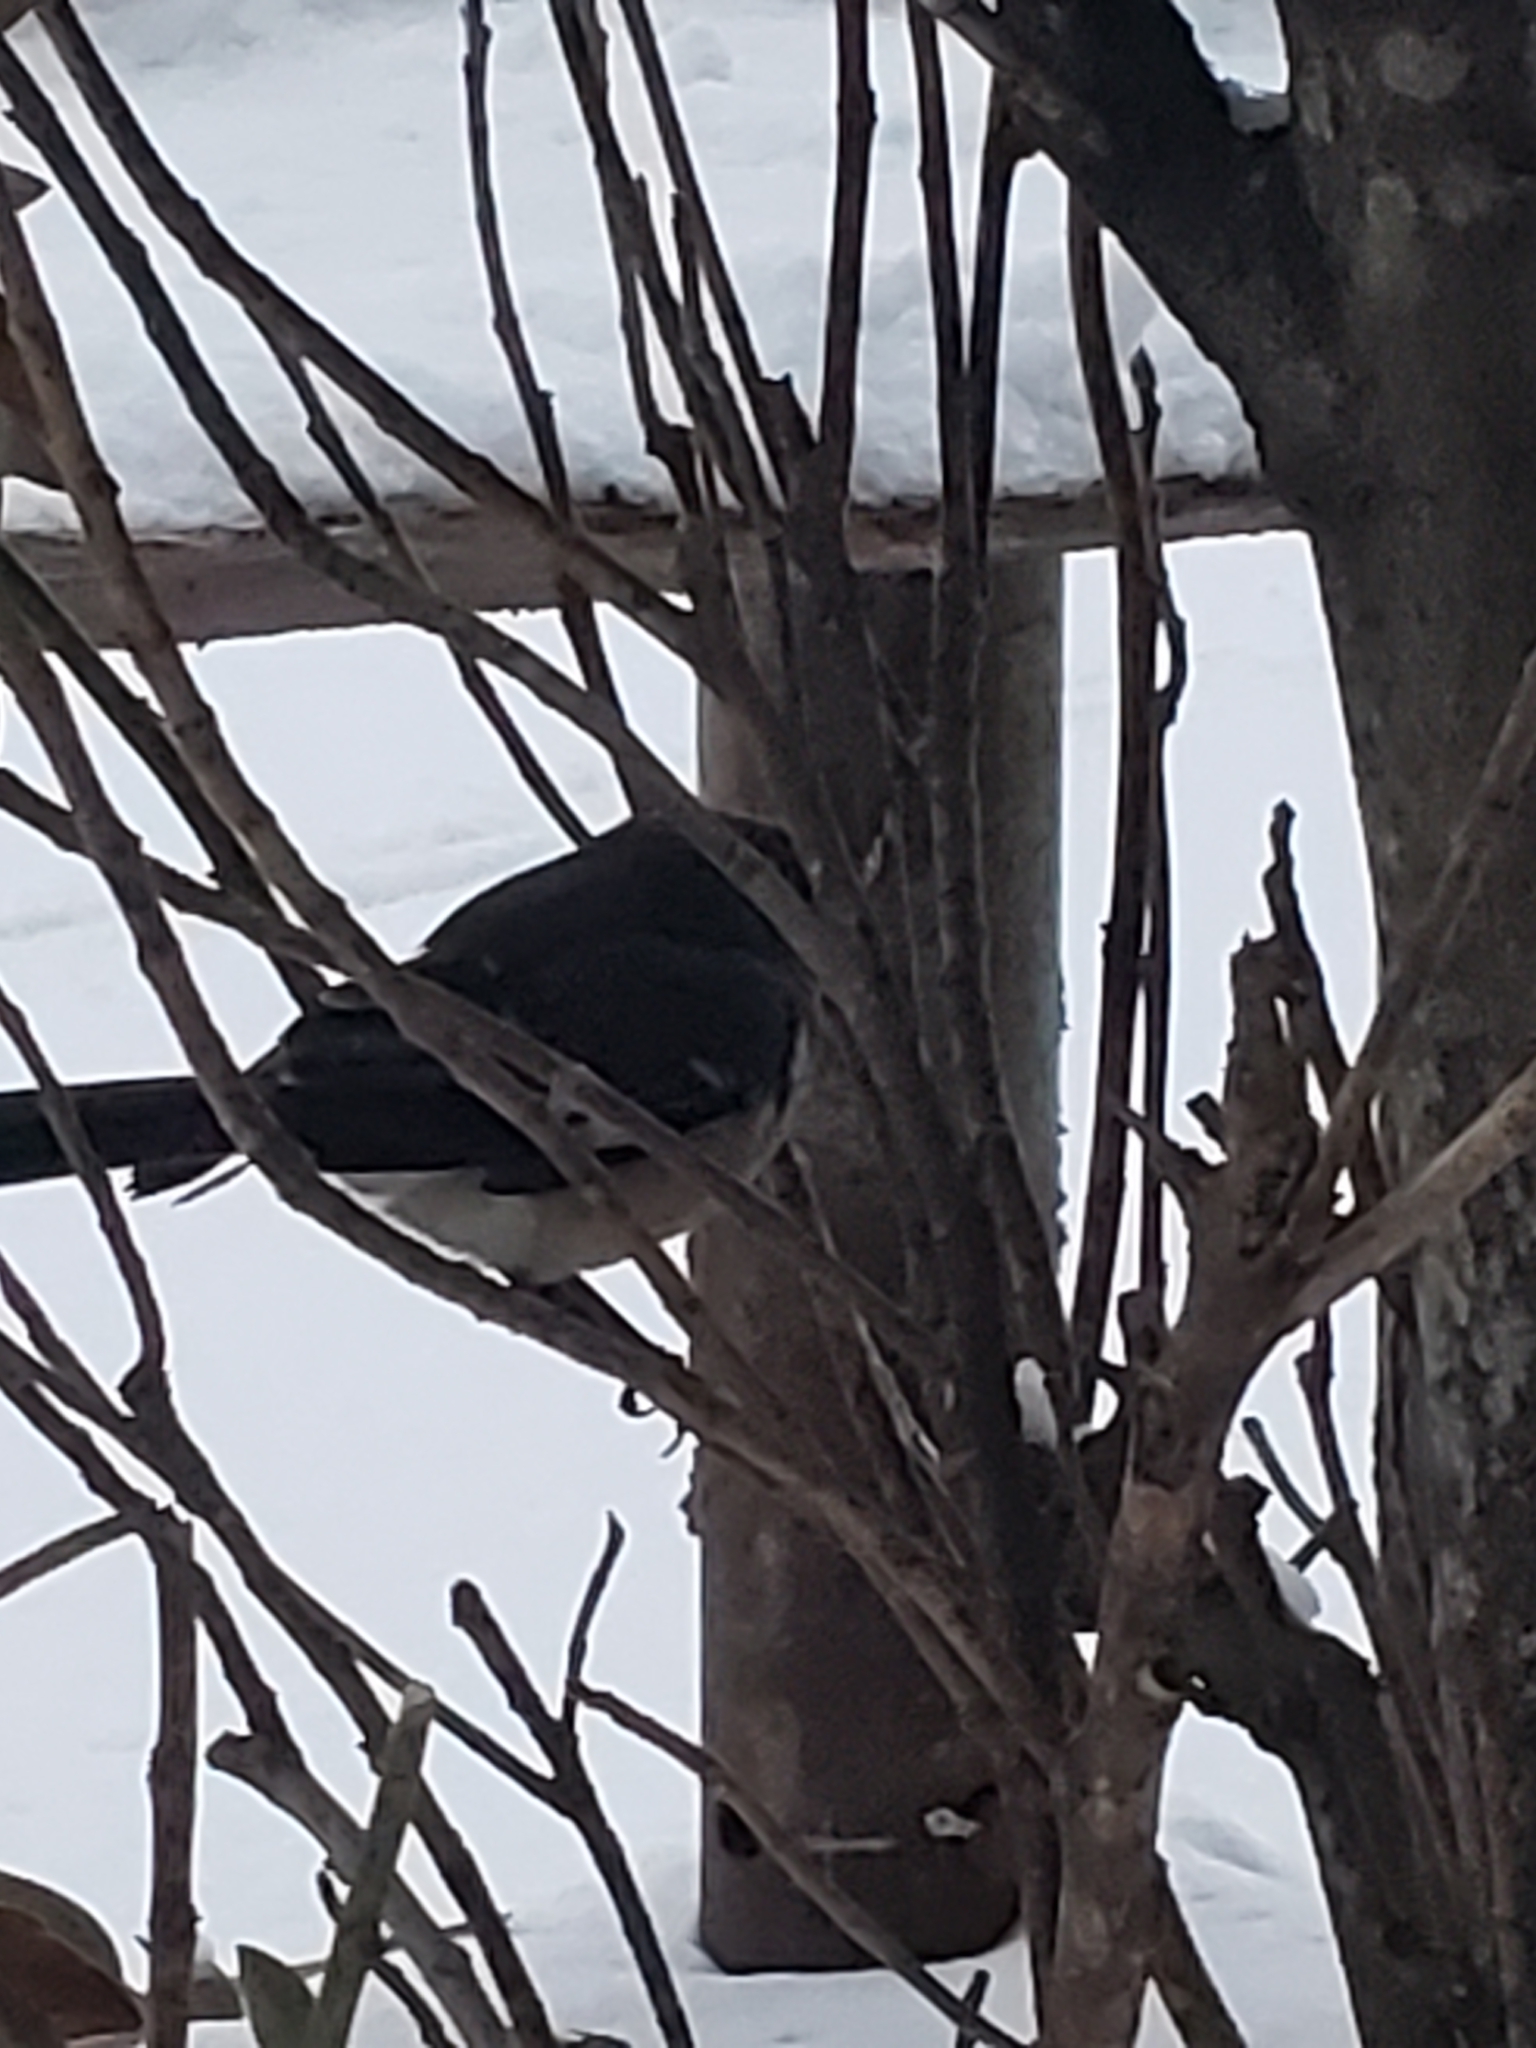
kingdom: Animalia
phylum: Chordata
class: Aves
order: Passeriformes
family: Mimidae
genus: Mimus
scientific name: Mimus polyglottos
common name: Northern mockingbird
